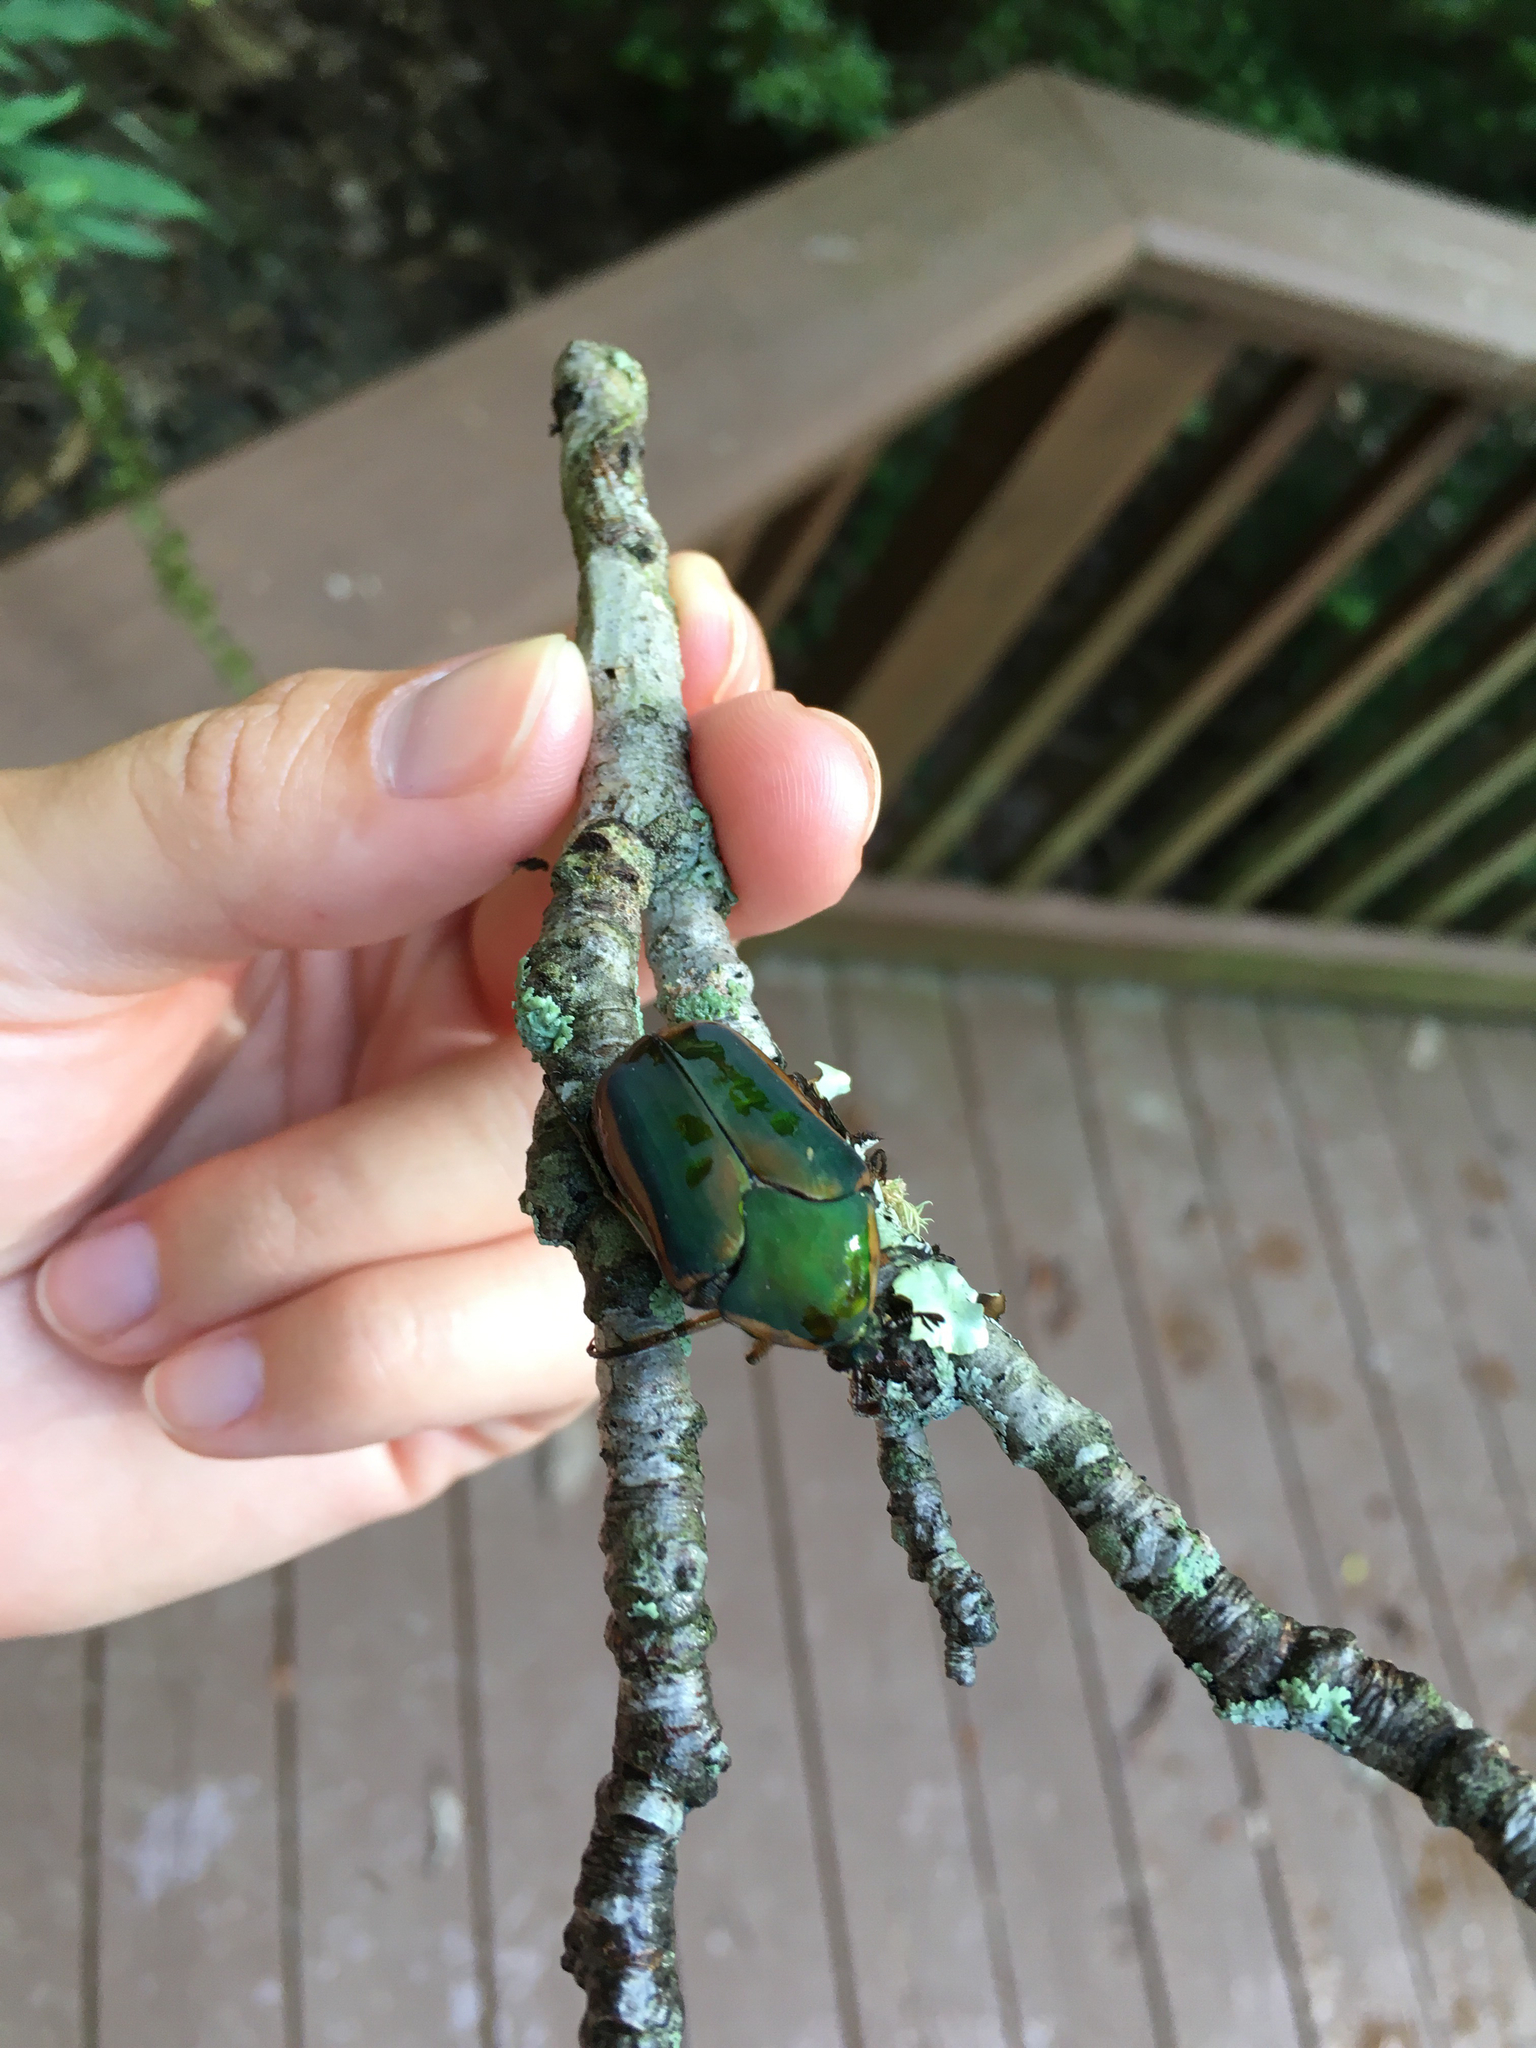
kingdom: Animalia
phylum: Arthropoda
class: Insecta
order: Coleoptera
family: Scarabaeidae
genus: Cotinis
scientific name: Cotinis nitida
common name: Common green june beetle
